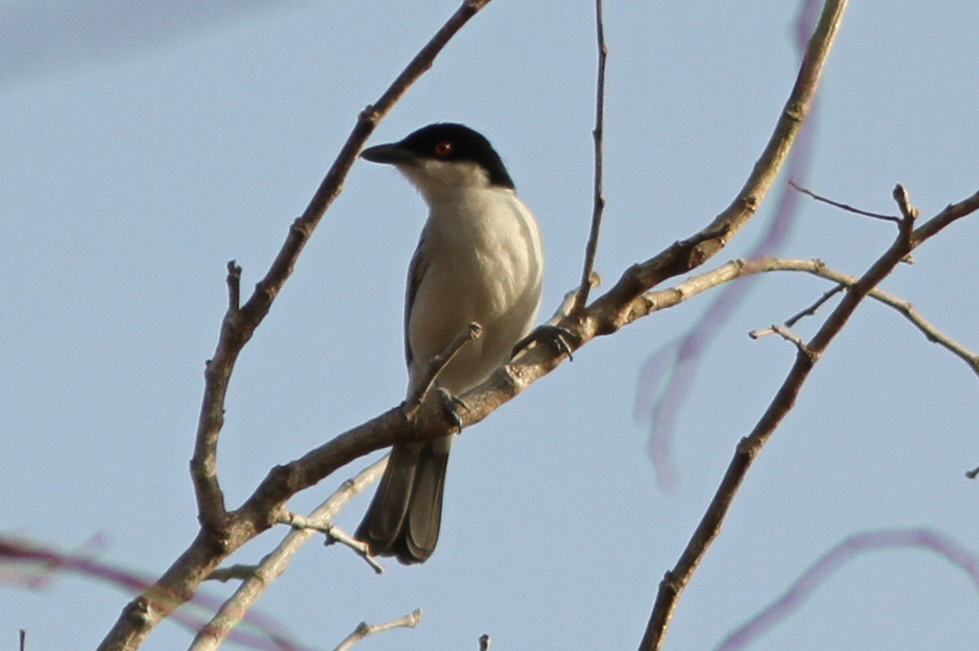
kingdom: Animalia
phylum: Chordata
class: Aves
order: Passeriformes
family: Malaconotidae
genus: Dryoscopus
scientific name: Dryoscopus gambensis
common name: Northern puffback
